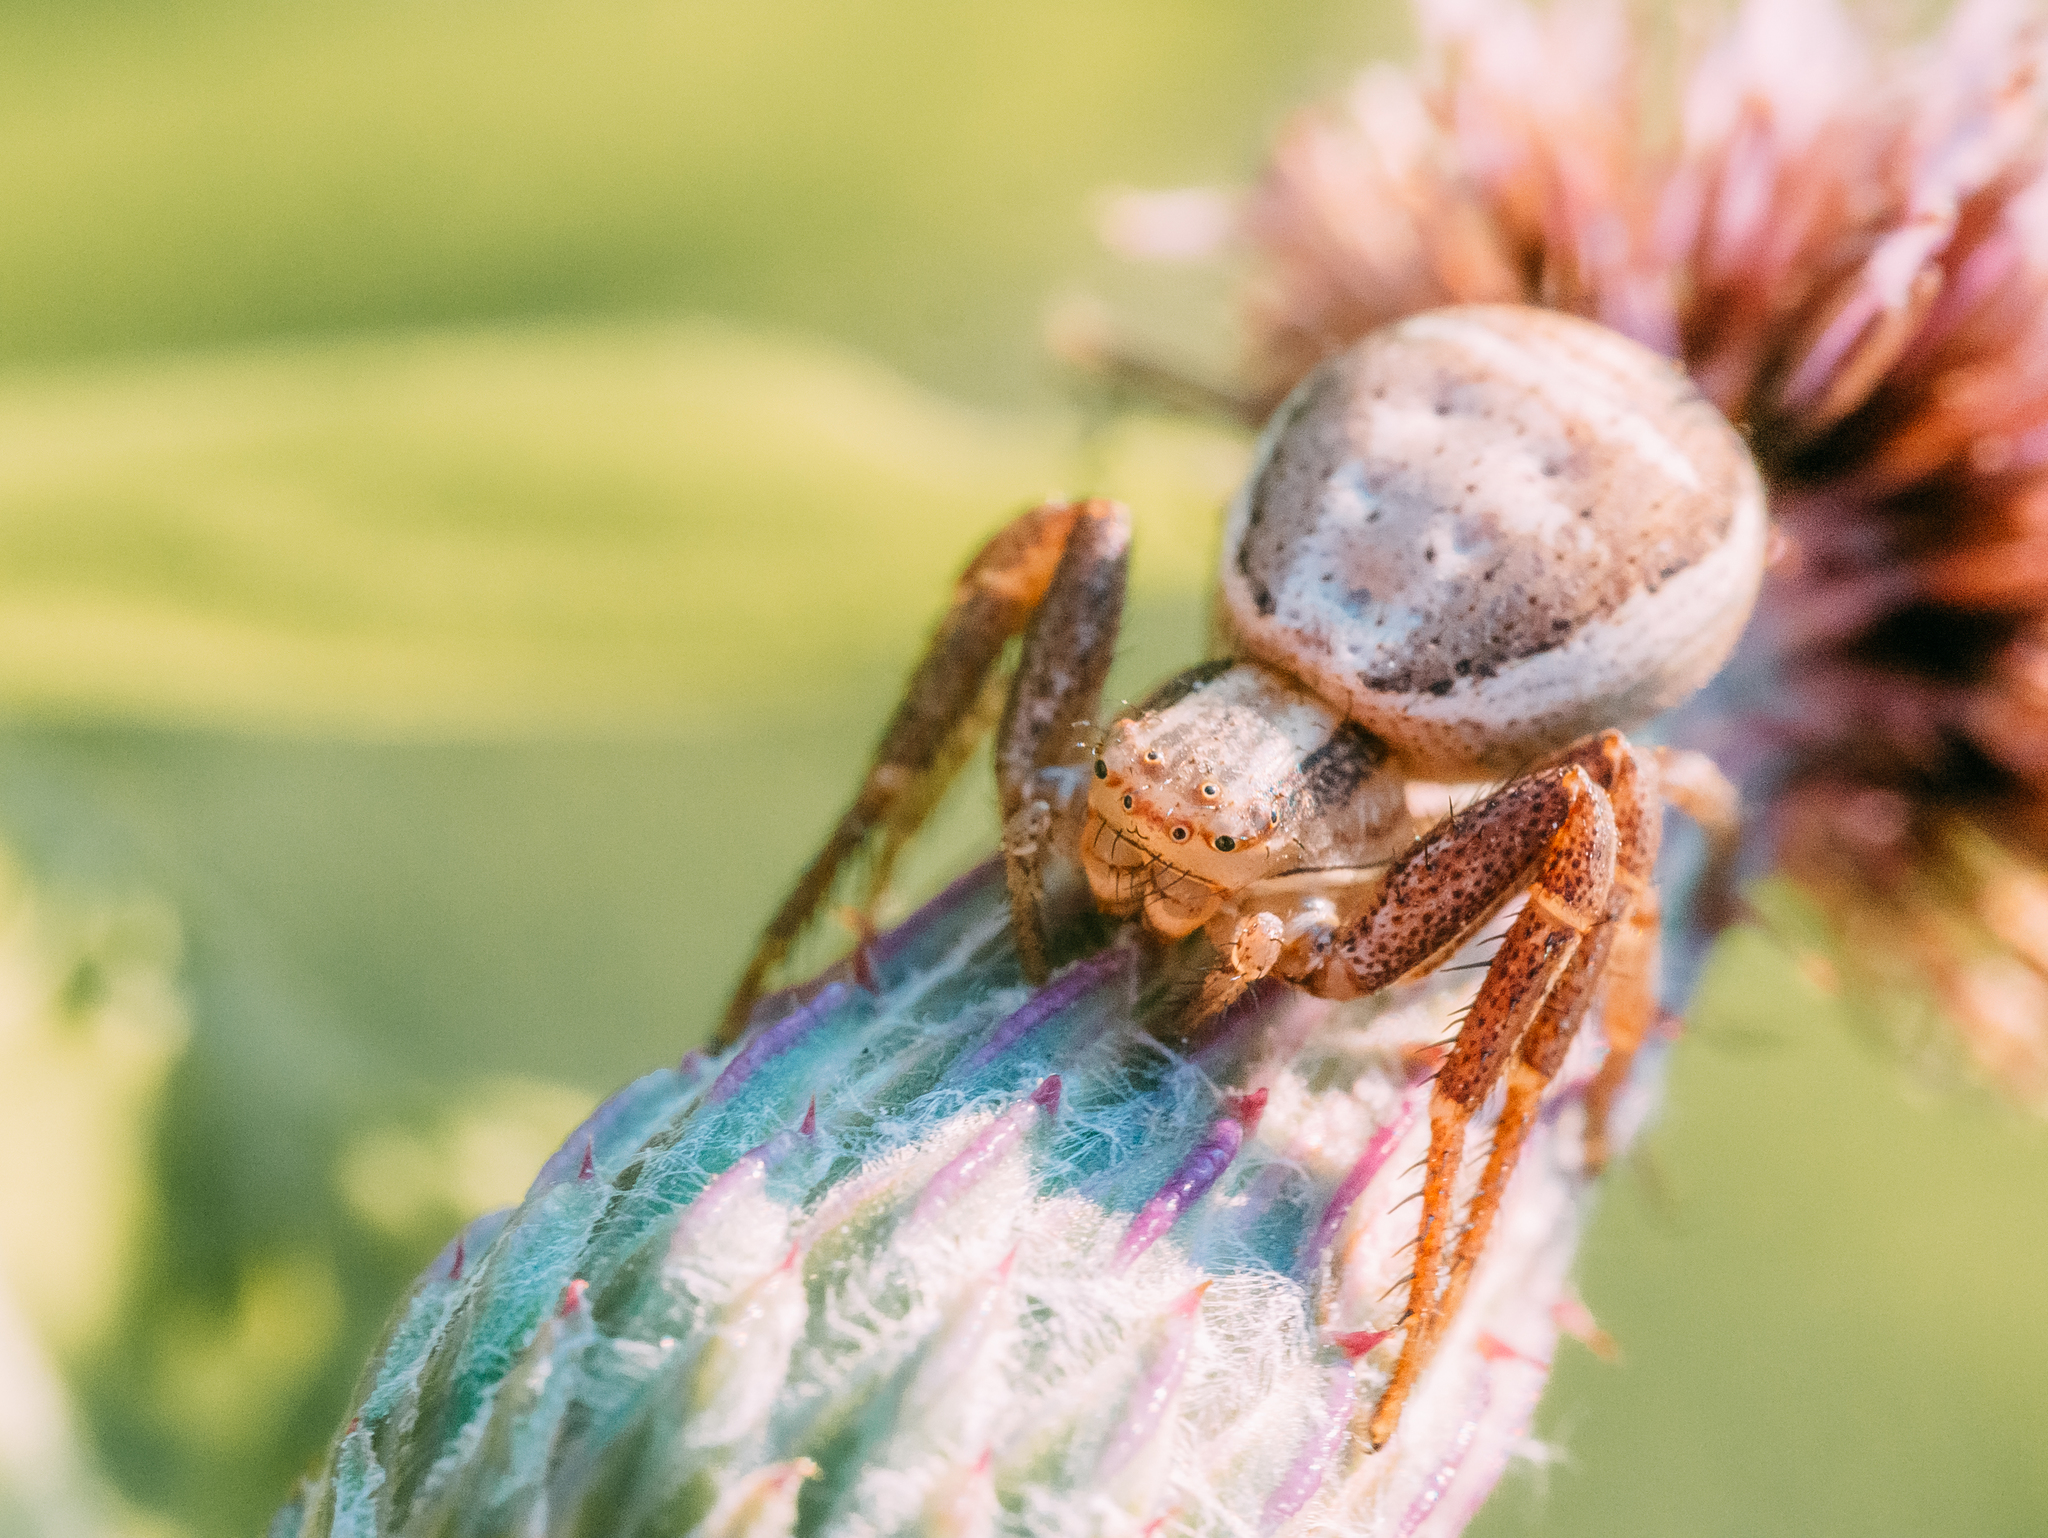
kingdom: Animalia
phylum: Arthropoda
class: Arachnida
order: Araneae
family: Thomisidae
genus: Xysticus
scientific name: Xysticus ulmi
